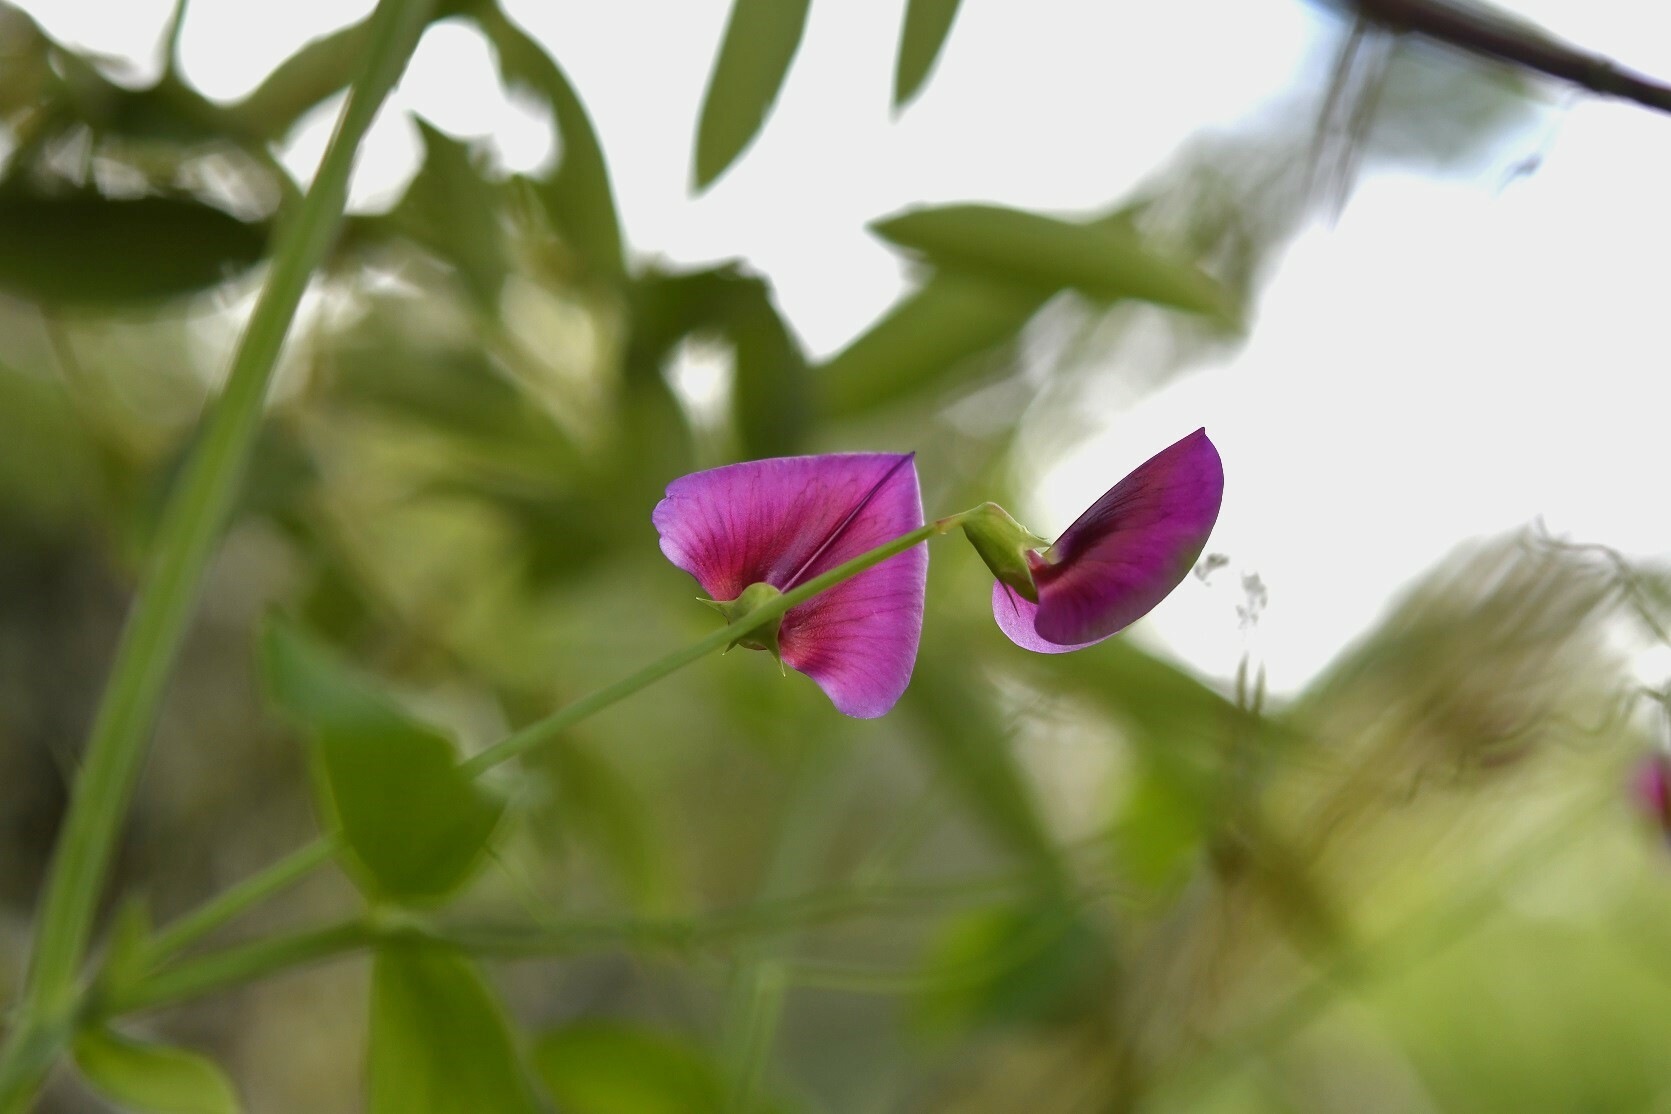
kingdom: Plantae
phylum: Tracheophyta
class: Magnoliopsida
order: Fabales
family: Fabaceae
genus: Lathyrus
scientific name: Lathyrus tingitanus
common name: Tangier pea
